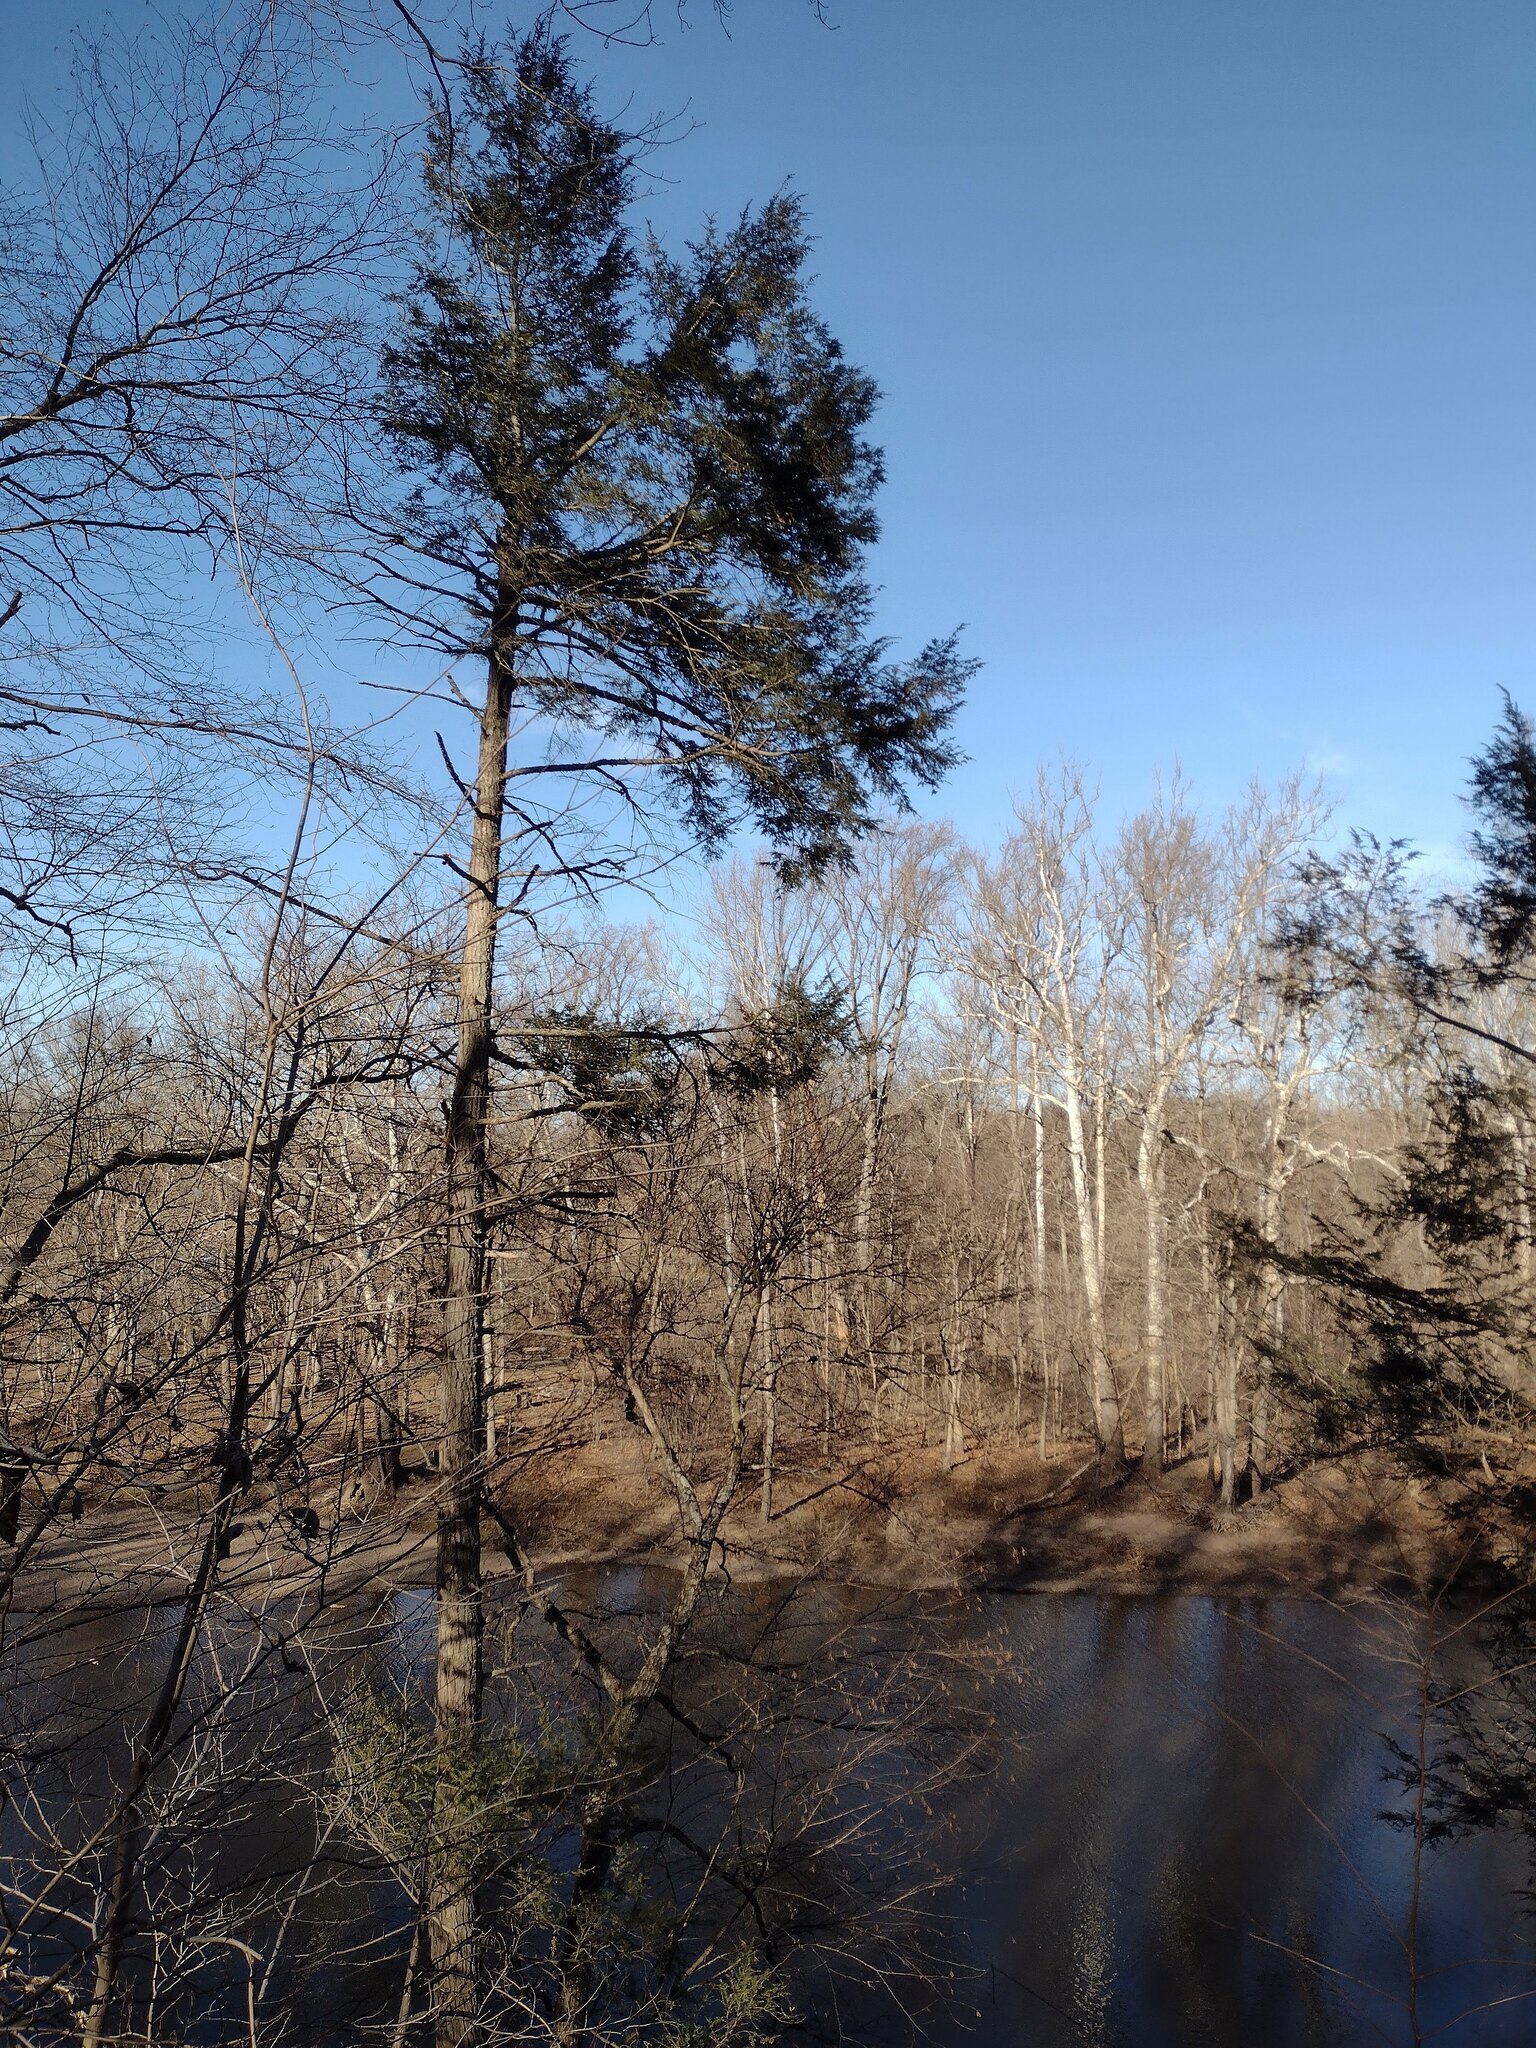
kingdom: Plantae
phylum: Tracheophyta
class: Pinopsida
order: Pinales
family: Cupressaceae
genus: Juniperus
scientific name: Juniperus virginiana
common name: Red juniper
